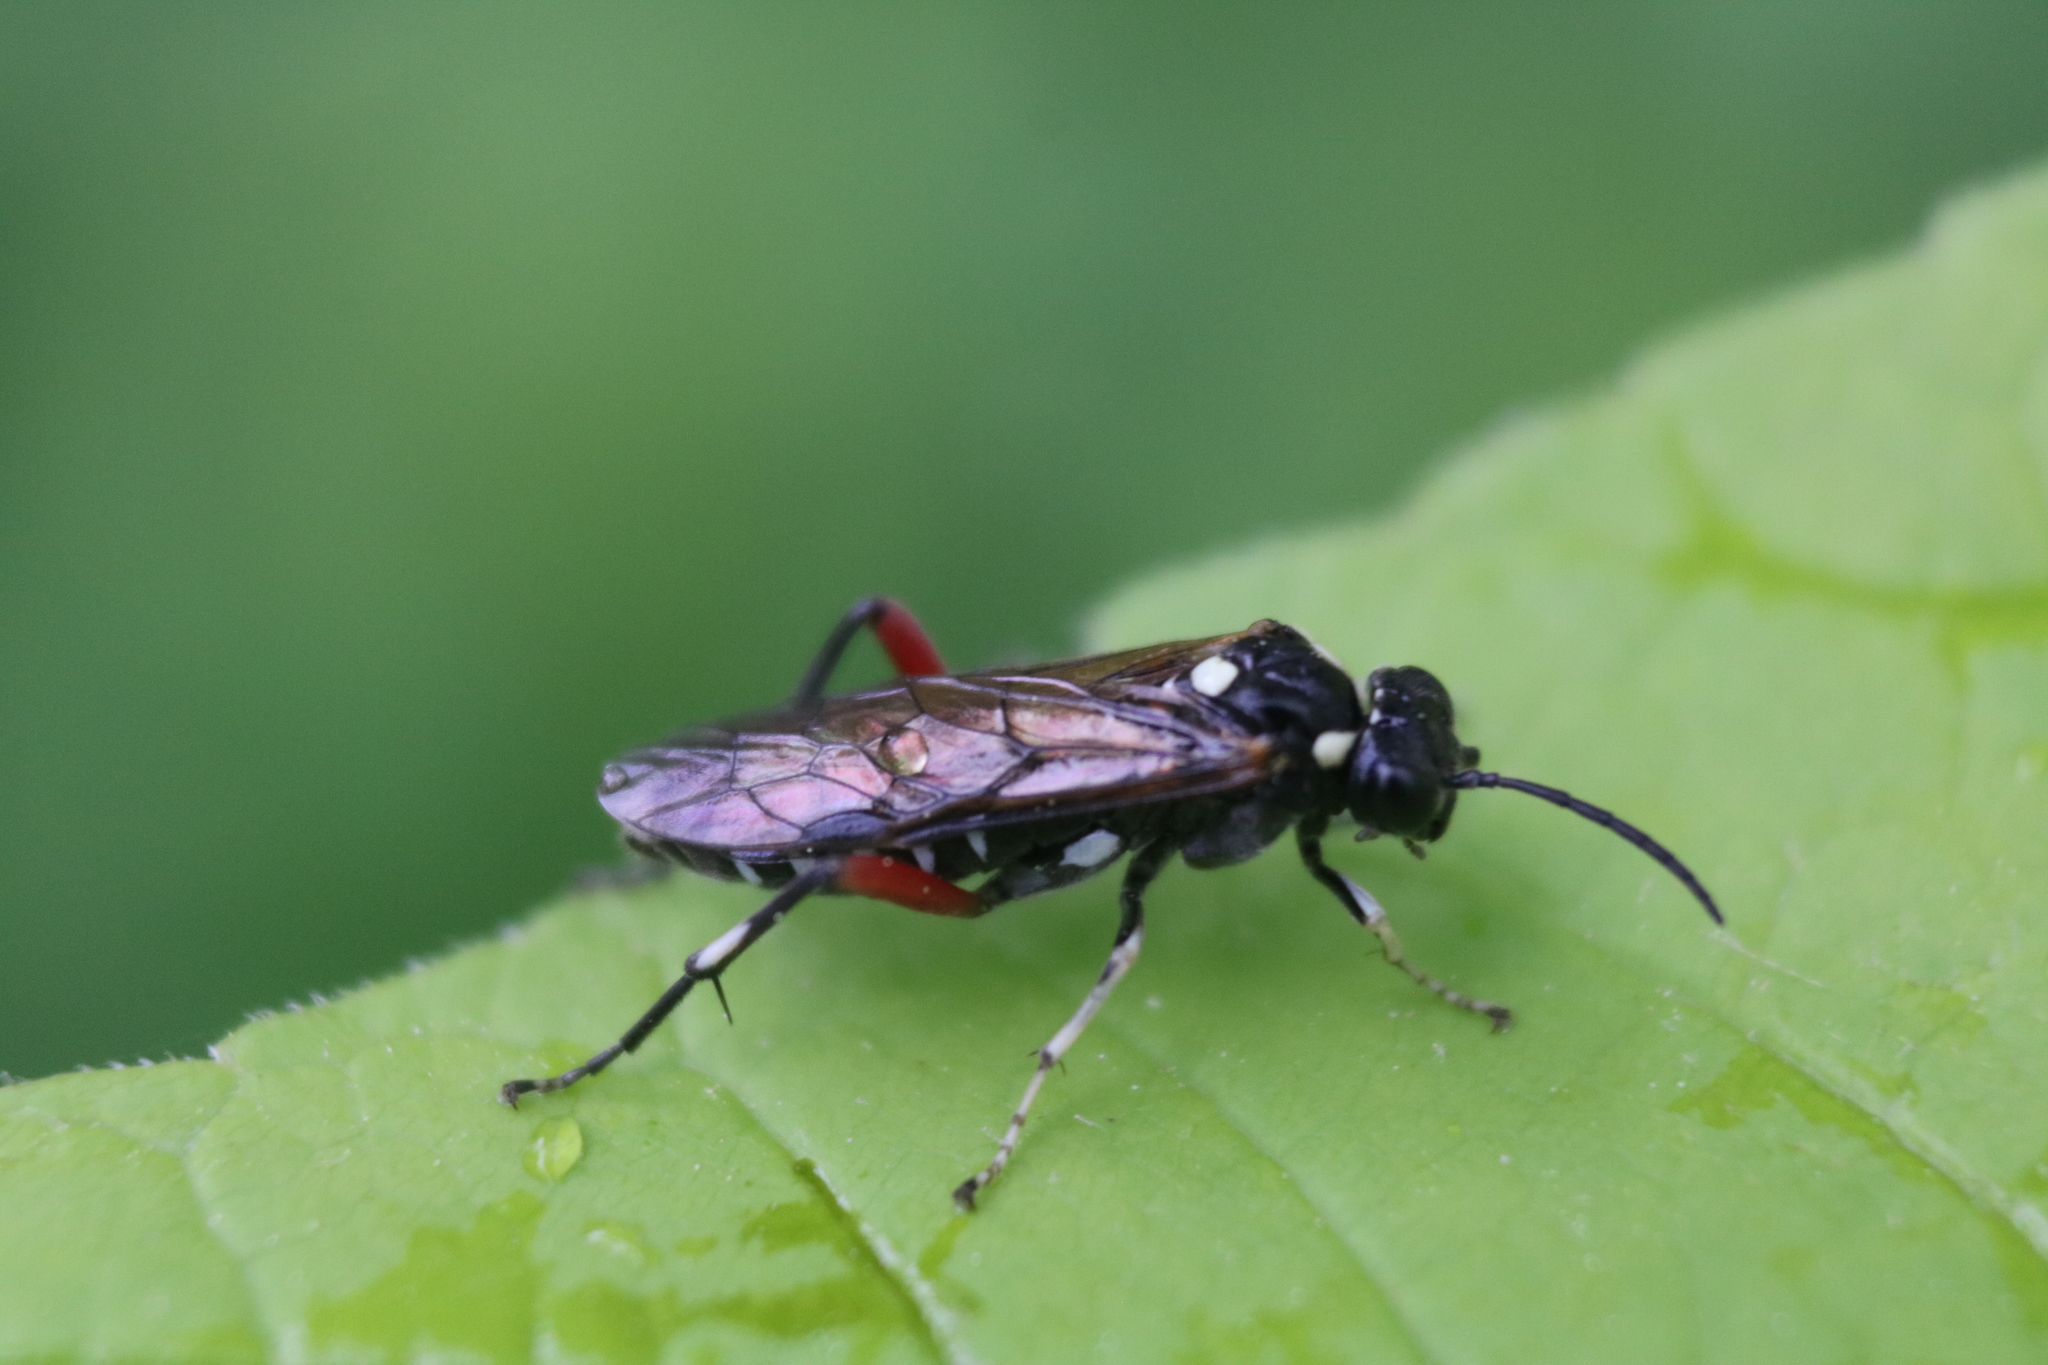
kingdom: Animalia
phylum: Arthropoda
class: Insecta
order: Hymenoptera
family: Tenthredinidae
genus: Macrophya
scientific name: Macrophya punctumalbum
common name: Sawfly
